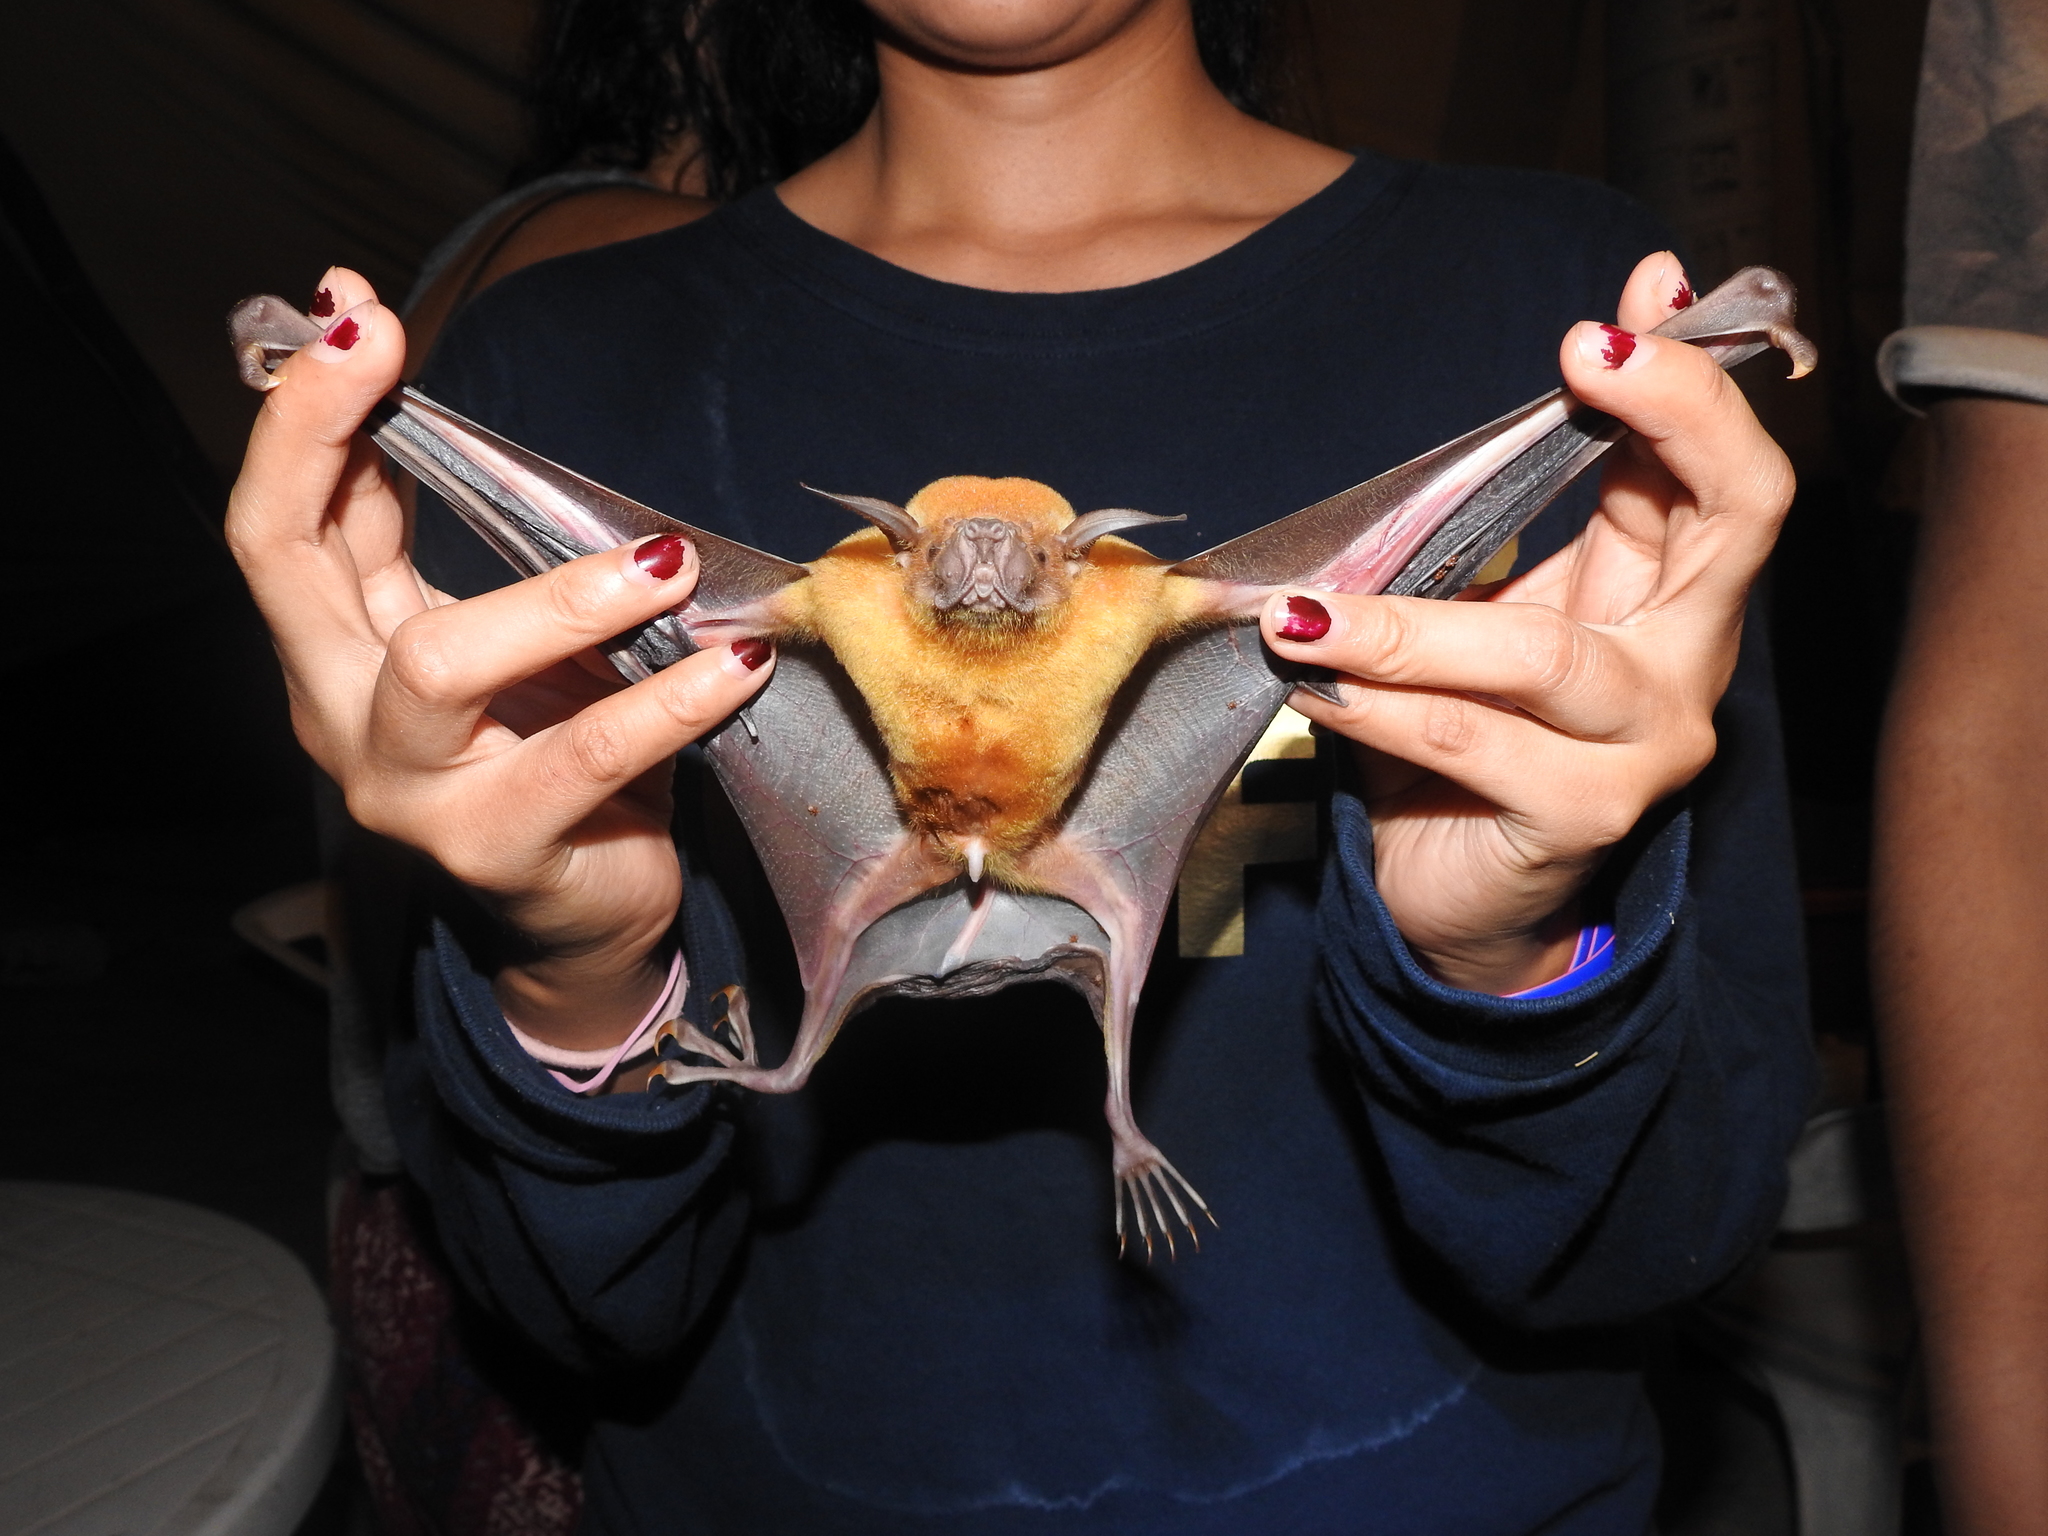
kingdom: Animalia
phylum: Chordata
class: Mammalia
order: Chiroptera
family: Noctilionidae
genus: Noctilio
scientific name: Noctilio leporinus
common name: Greater bulldog bat
